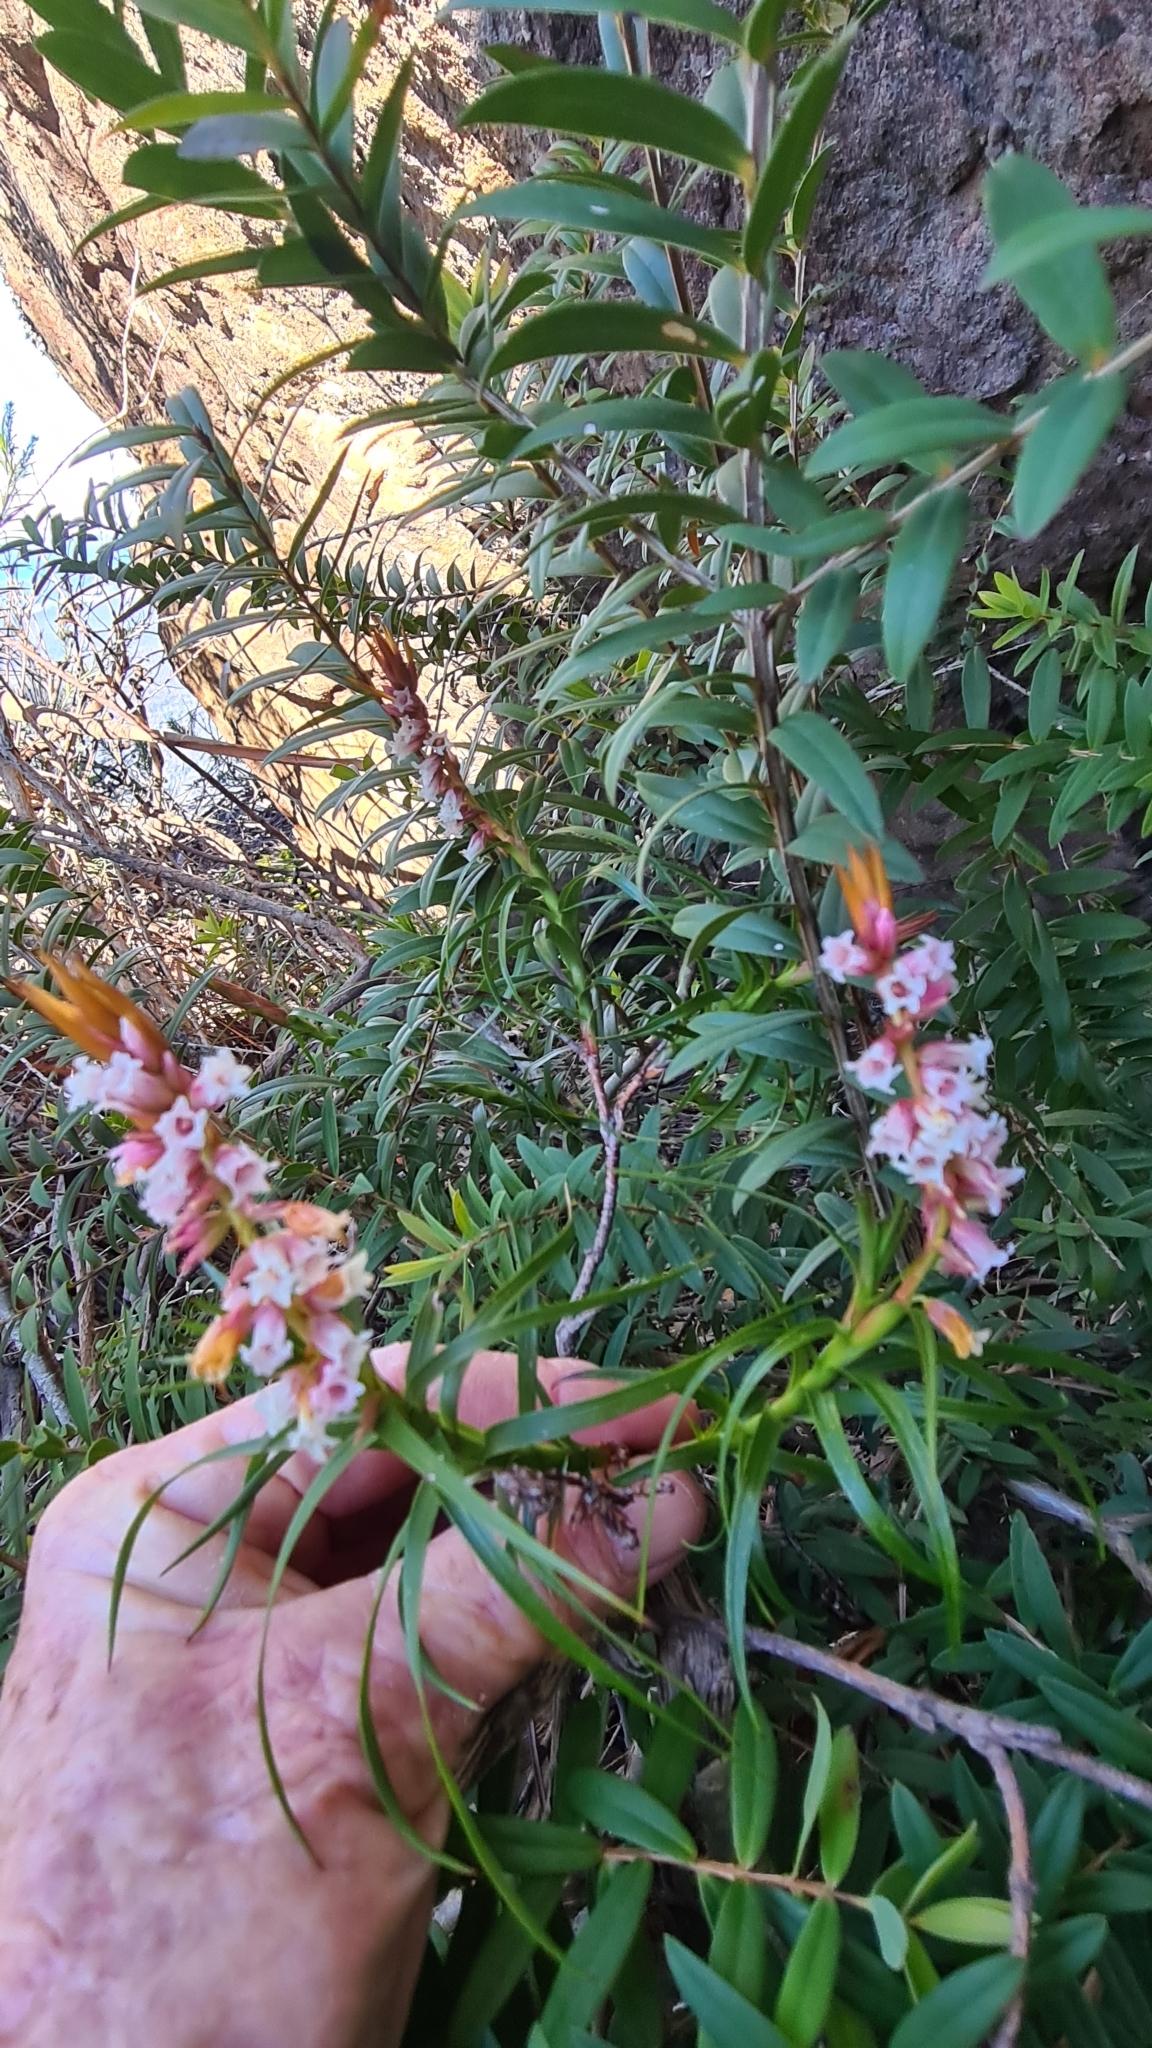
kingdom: Plantae
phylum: Tracheophyta
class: Magnoliopsida
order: Ericales
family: Ericaceae
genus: Dracophyllum
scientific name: Dracophyllum secundum
